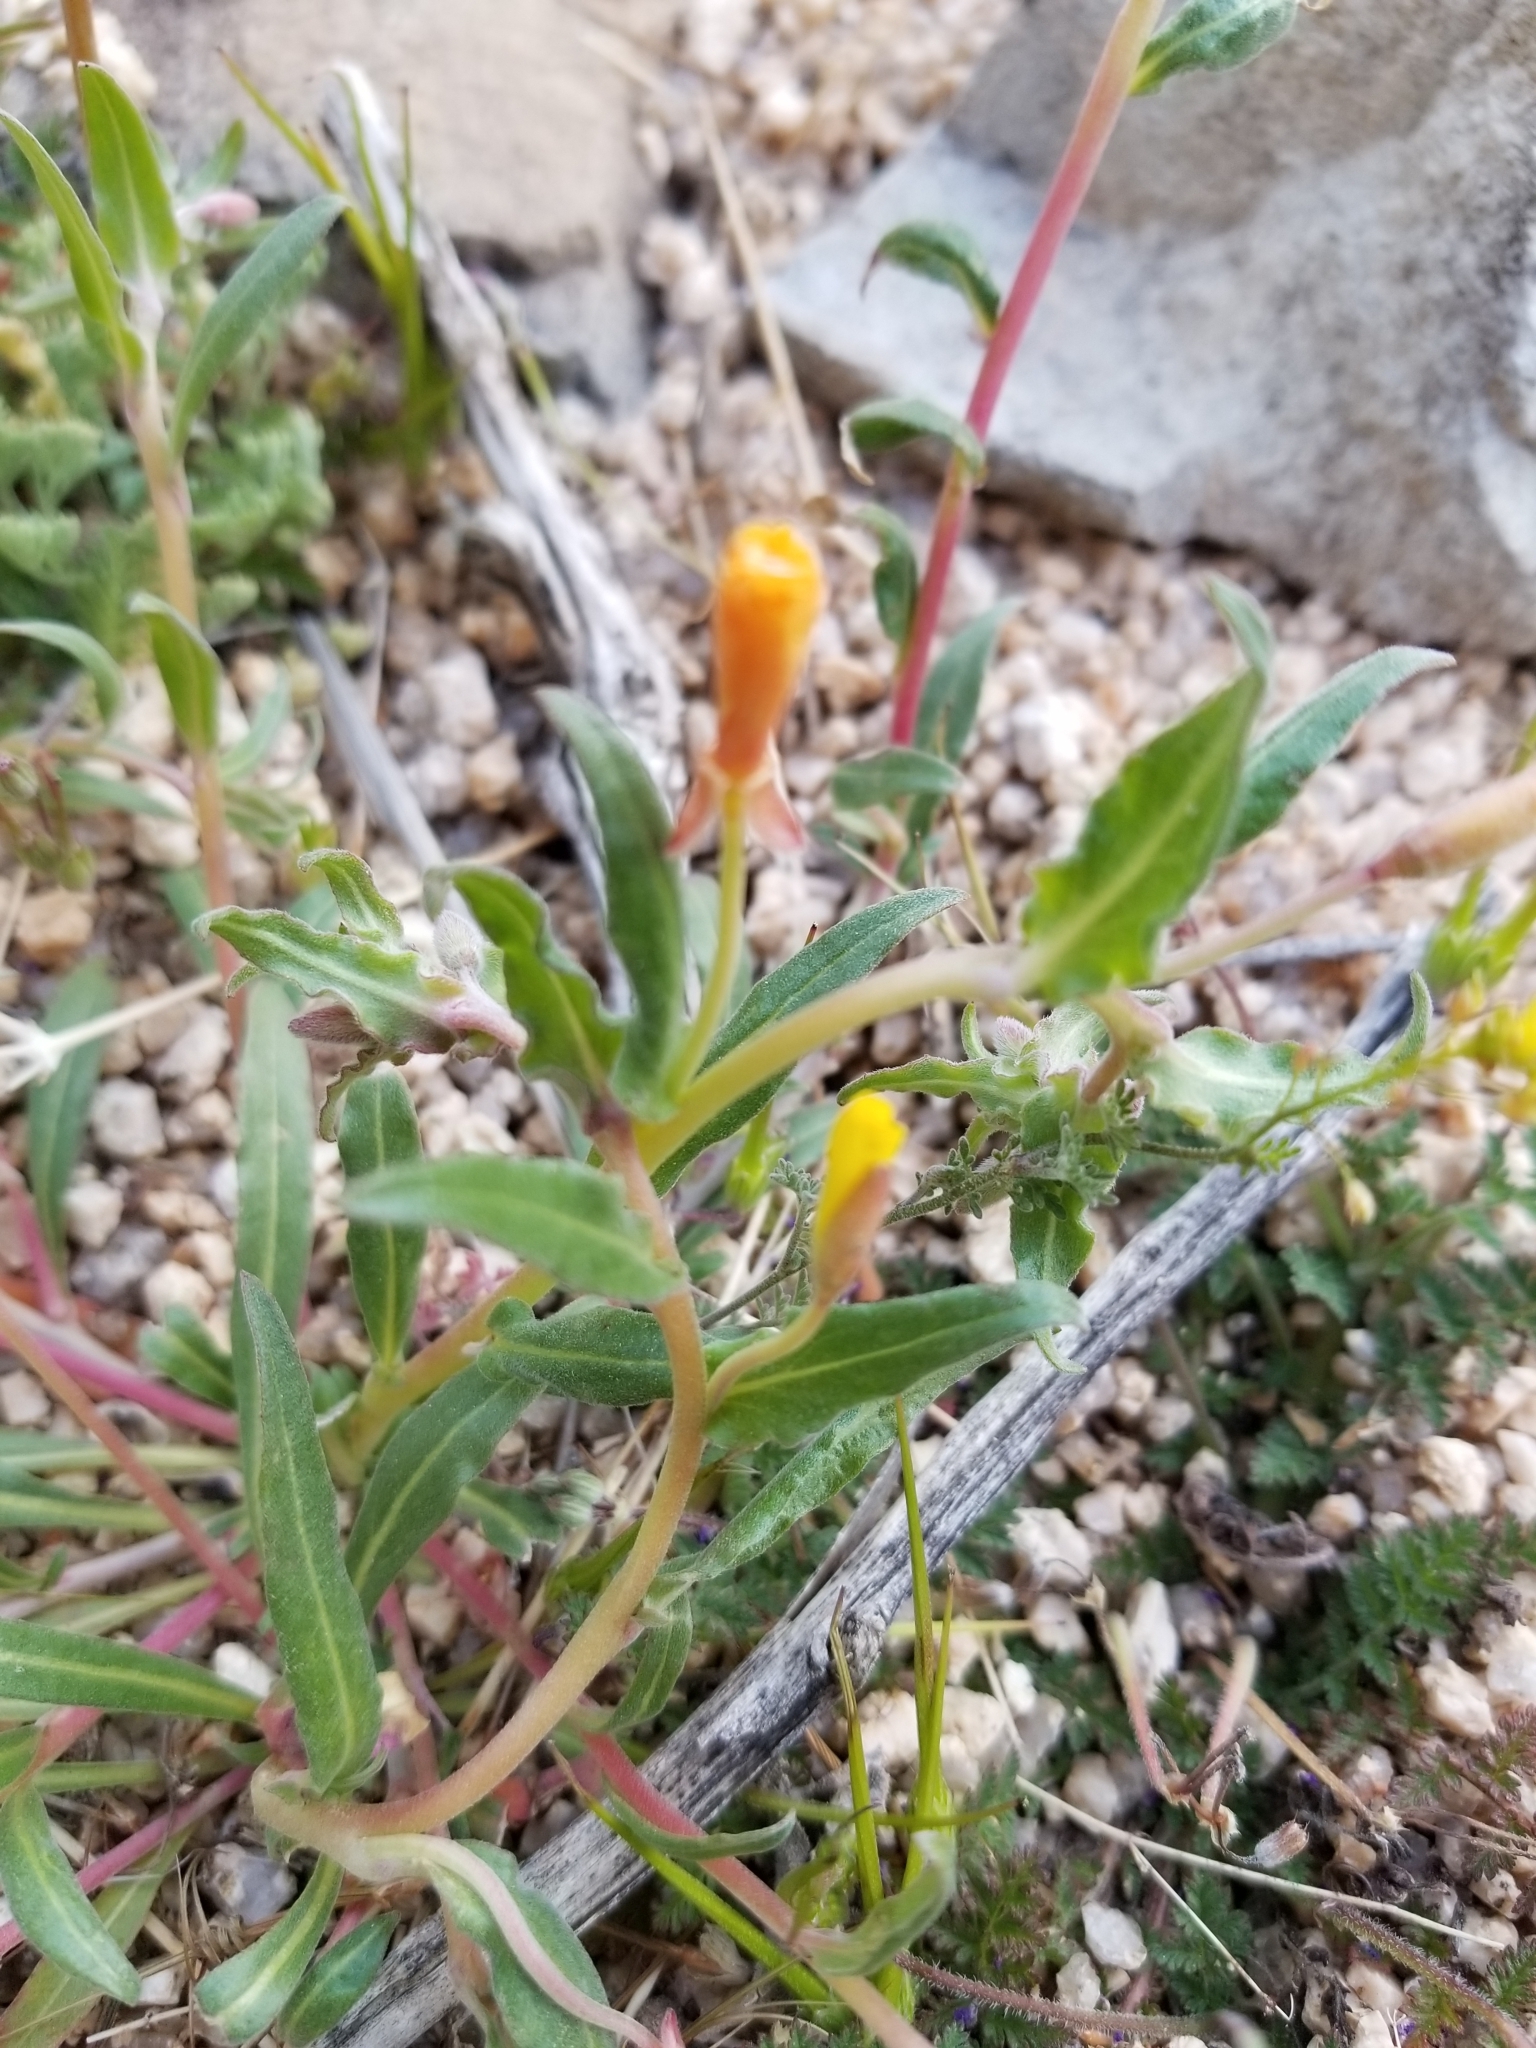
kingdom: Plantae
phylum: Tracheophyta
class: Magnoliopsida
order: Myrtales
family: Onagraceae
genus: Camissoniopsis
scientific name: Camissoniopsis pallida
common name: Paleyellow suncup
